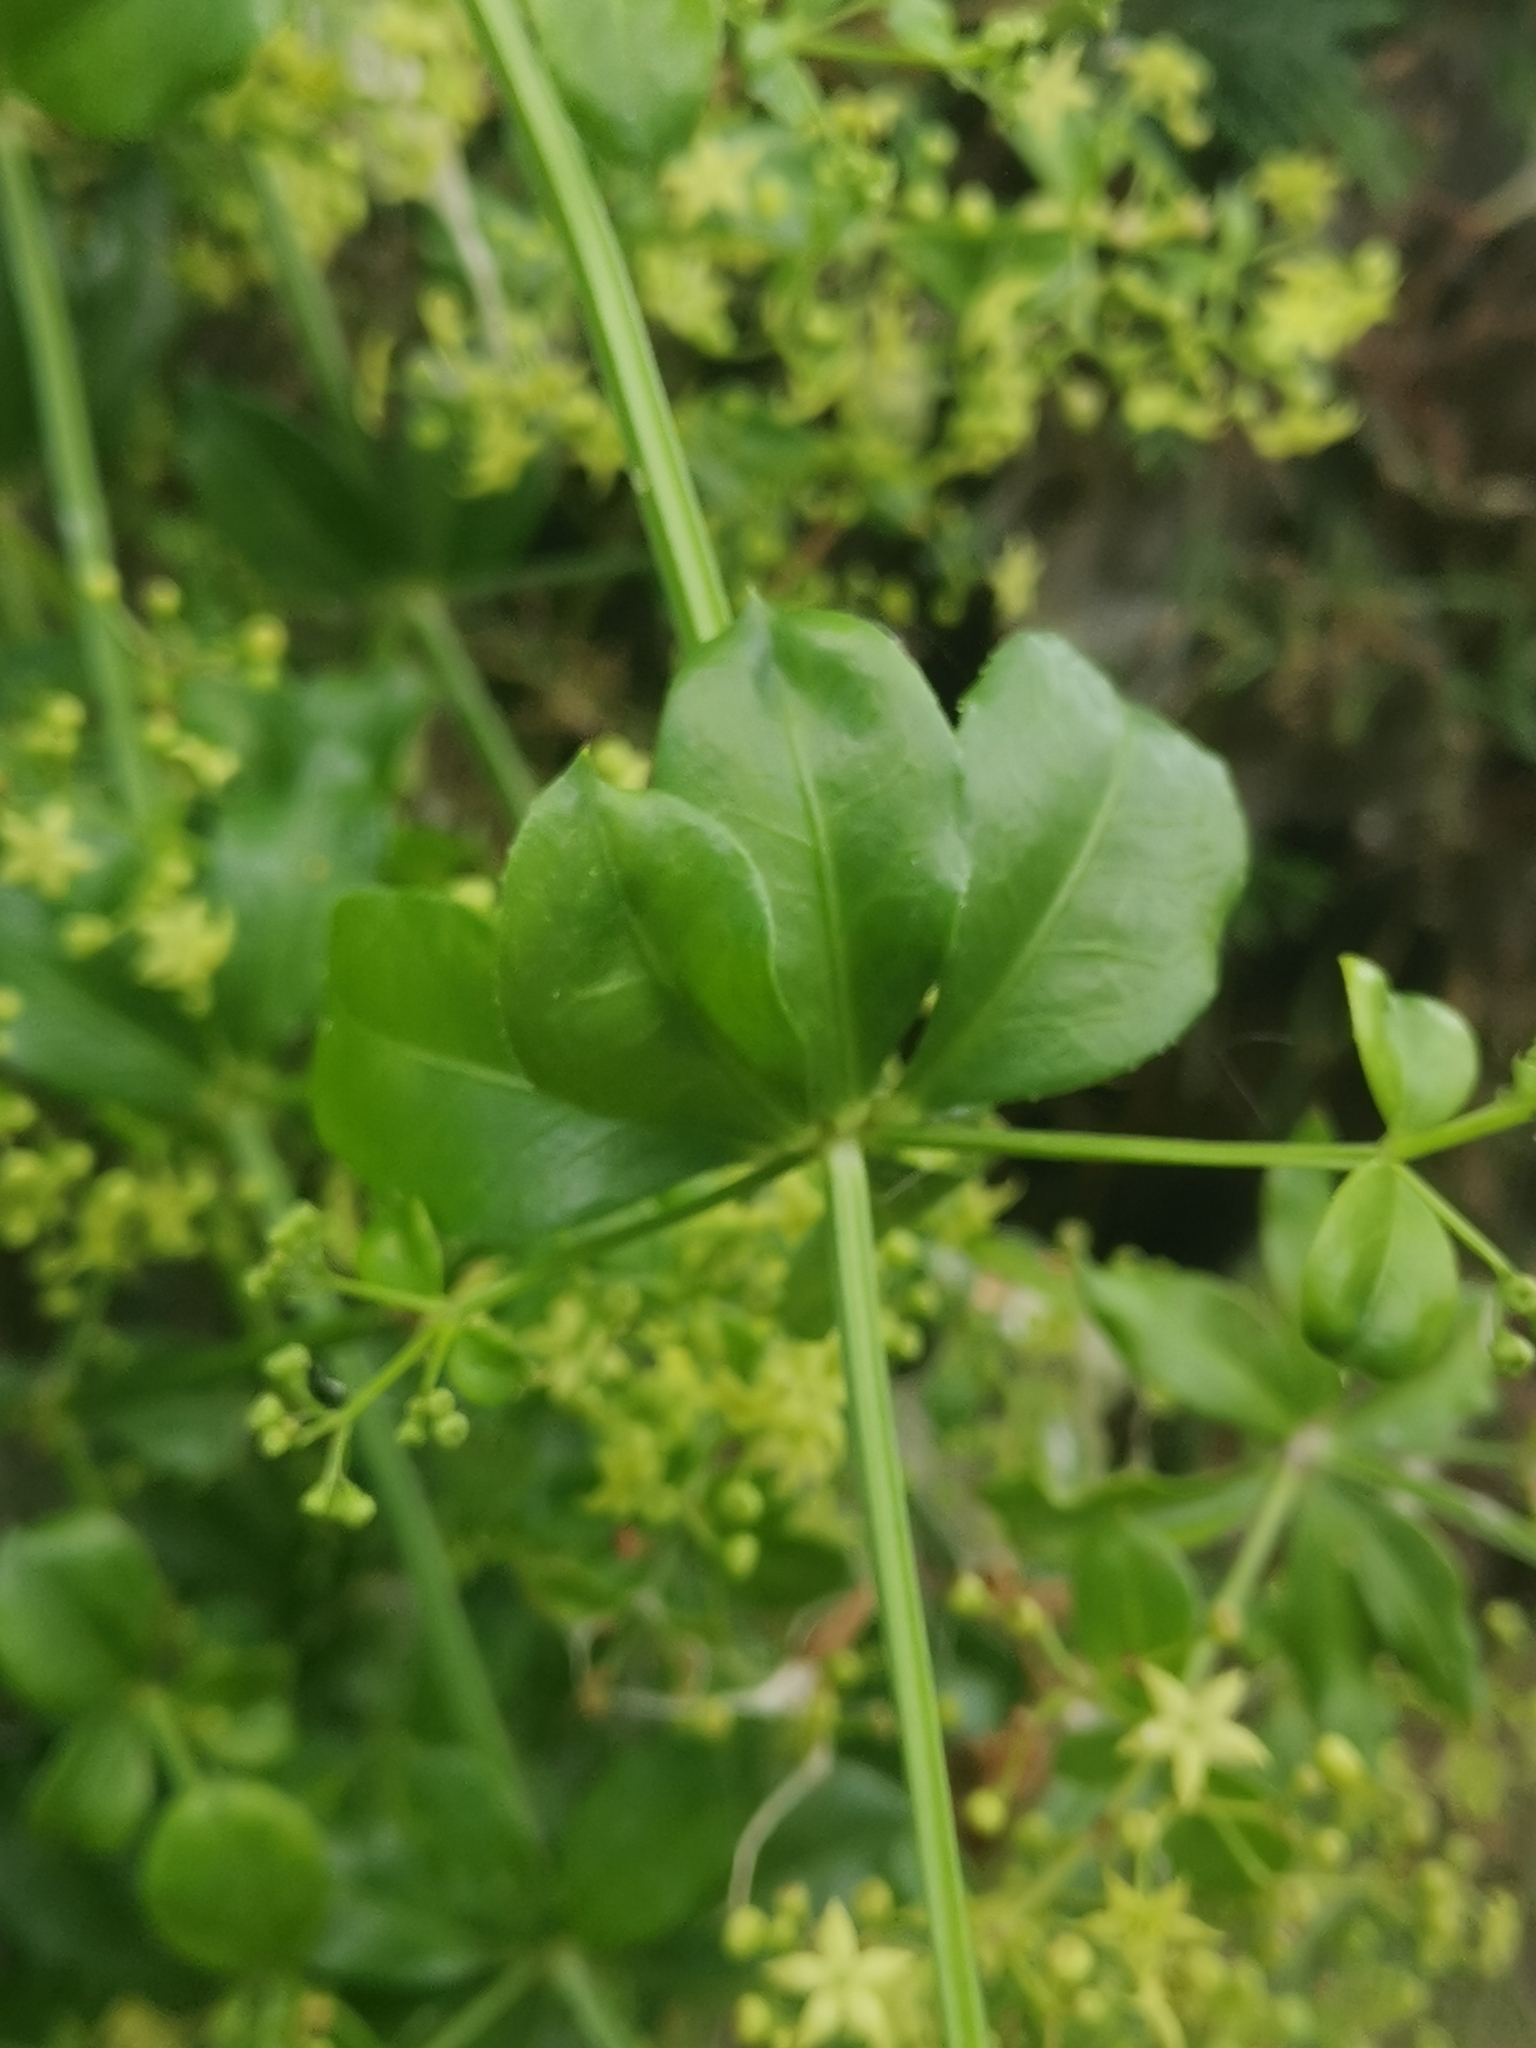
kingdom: Plantae
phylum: Tracheophyta
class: Magnoliopsida
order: Gentianales
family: Rubiaceae
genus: Rubia
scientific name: Rubia peregrina
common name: Wild madder
